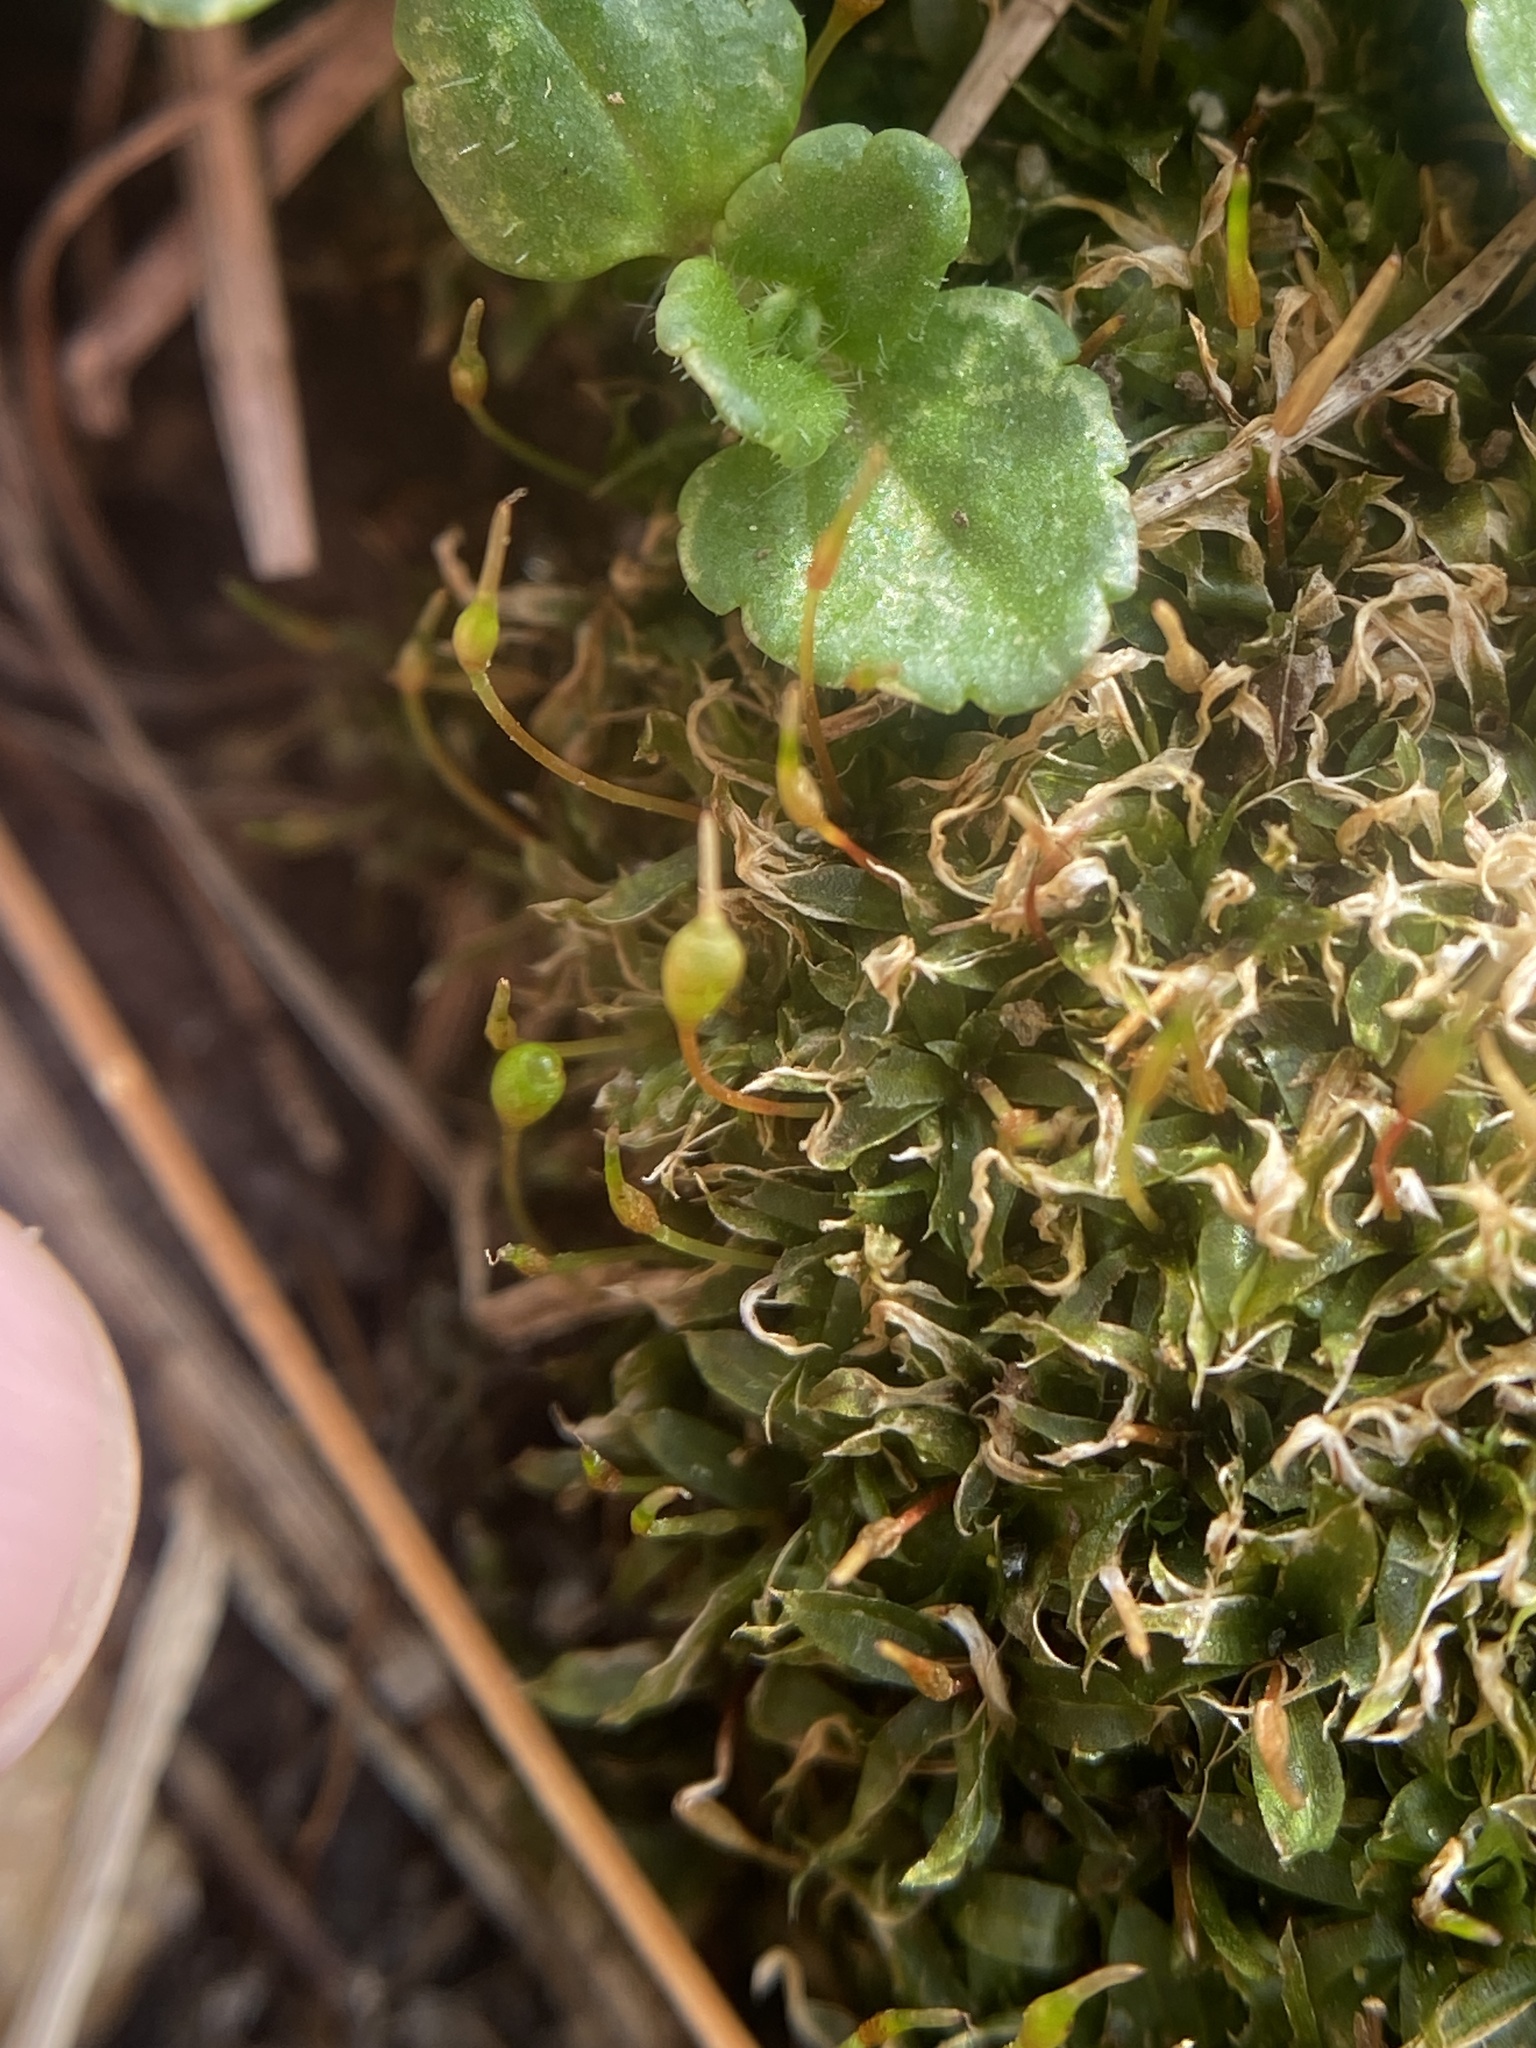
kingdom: Plantae
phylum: Bryophyta
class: Bryopsida
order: Funariales
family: Funariaceae
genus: Physcomitrium
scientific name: Physcomitrium pyriforme
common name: Common bladder-moss
